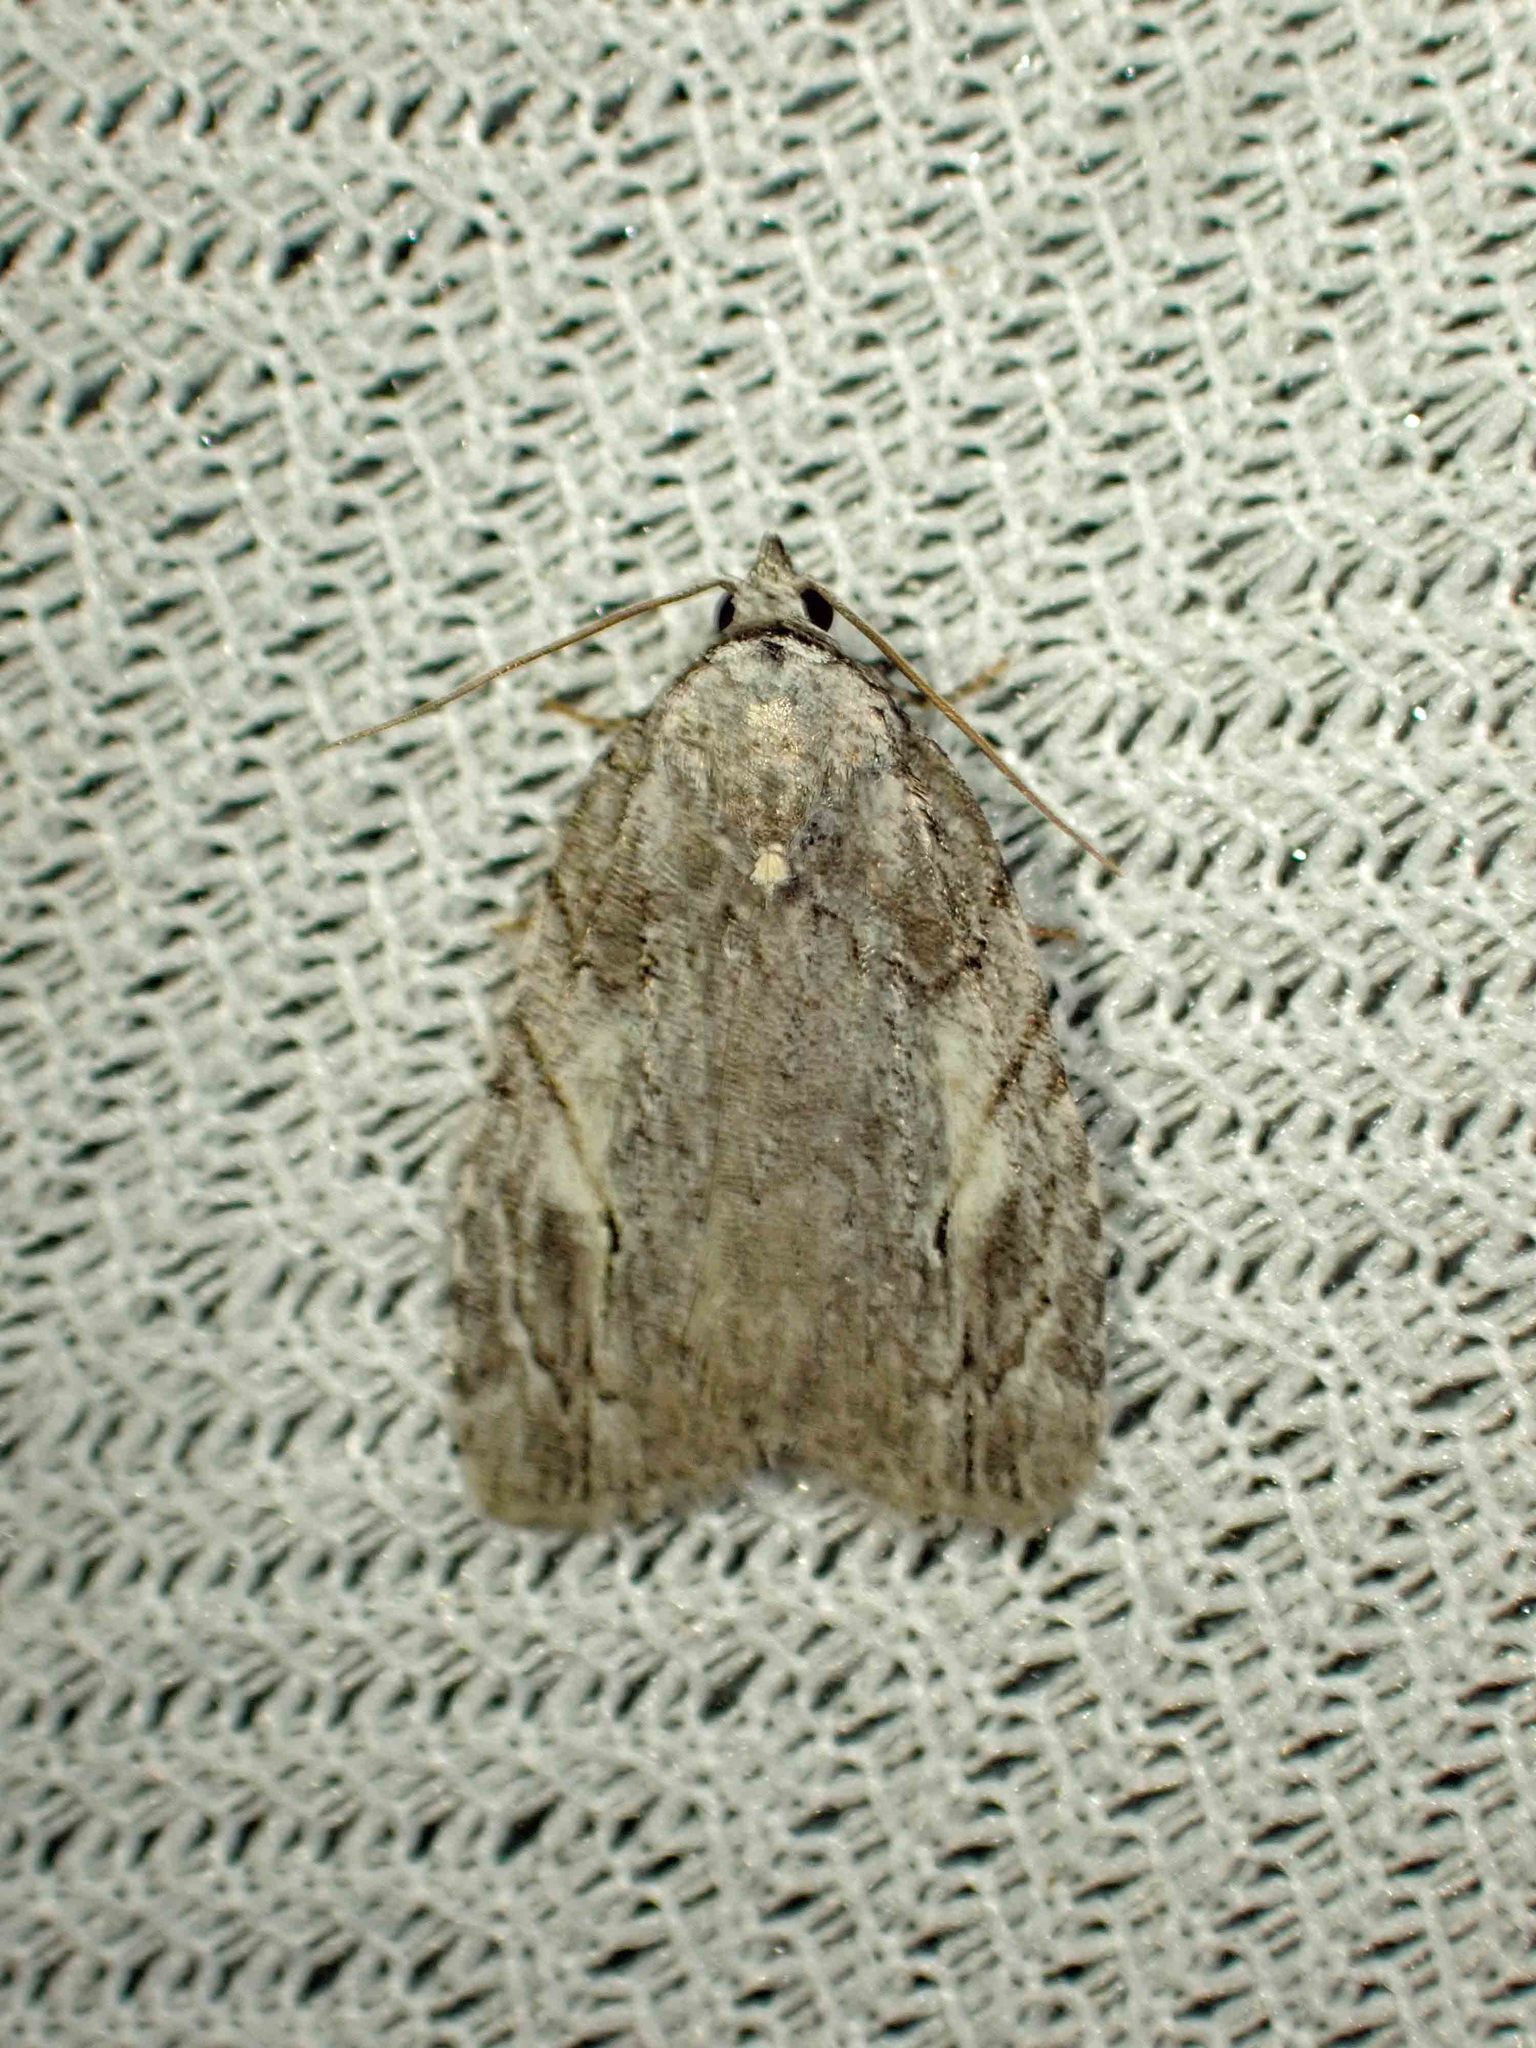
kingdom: Animalia
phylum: Arthropoda
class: Insecta
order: Lepidoptera
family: Noctuidae
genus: Balsa
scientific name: Balsa labecula
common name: White-blotched balsa moth
